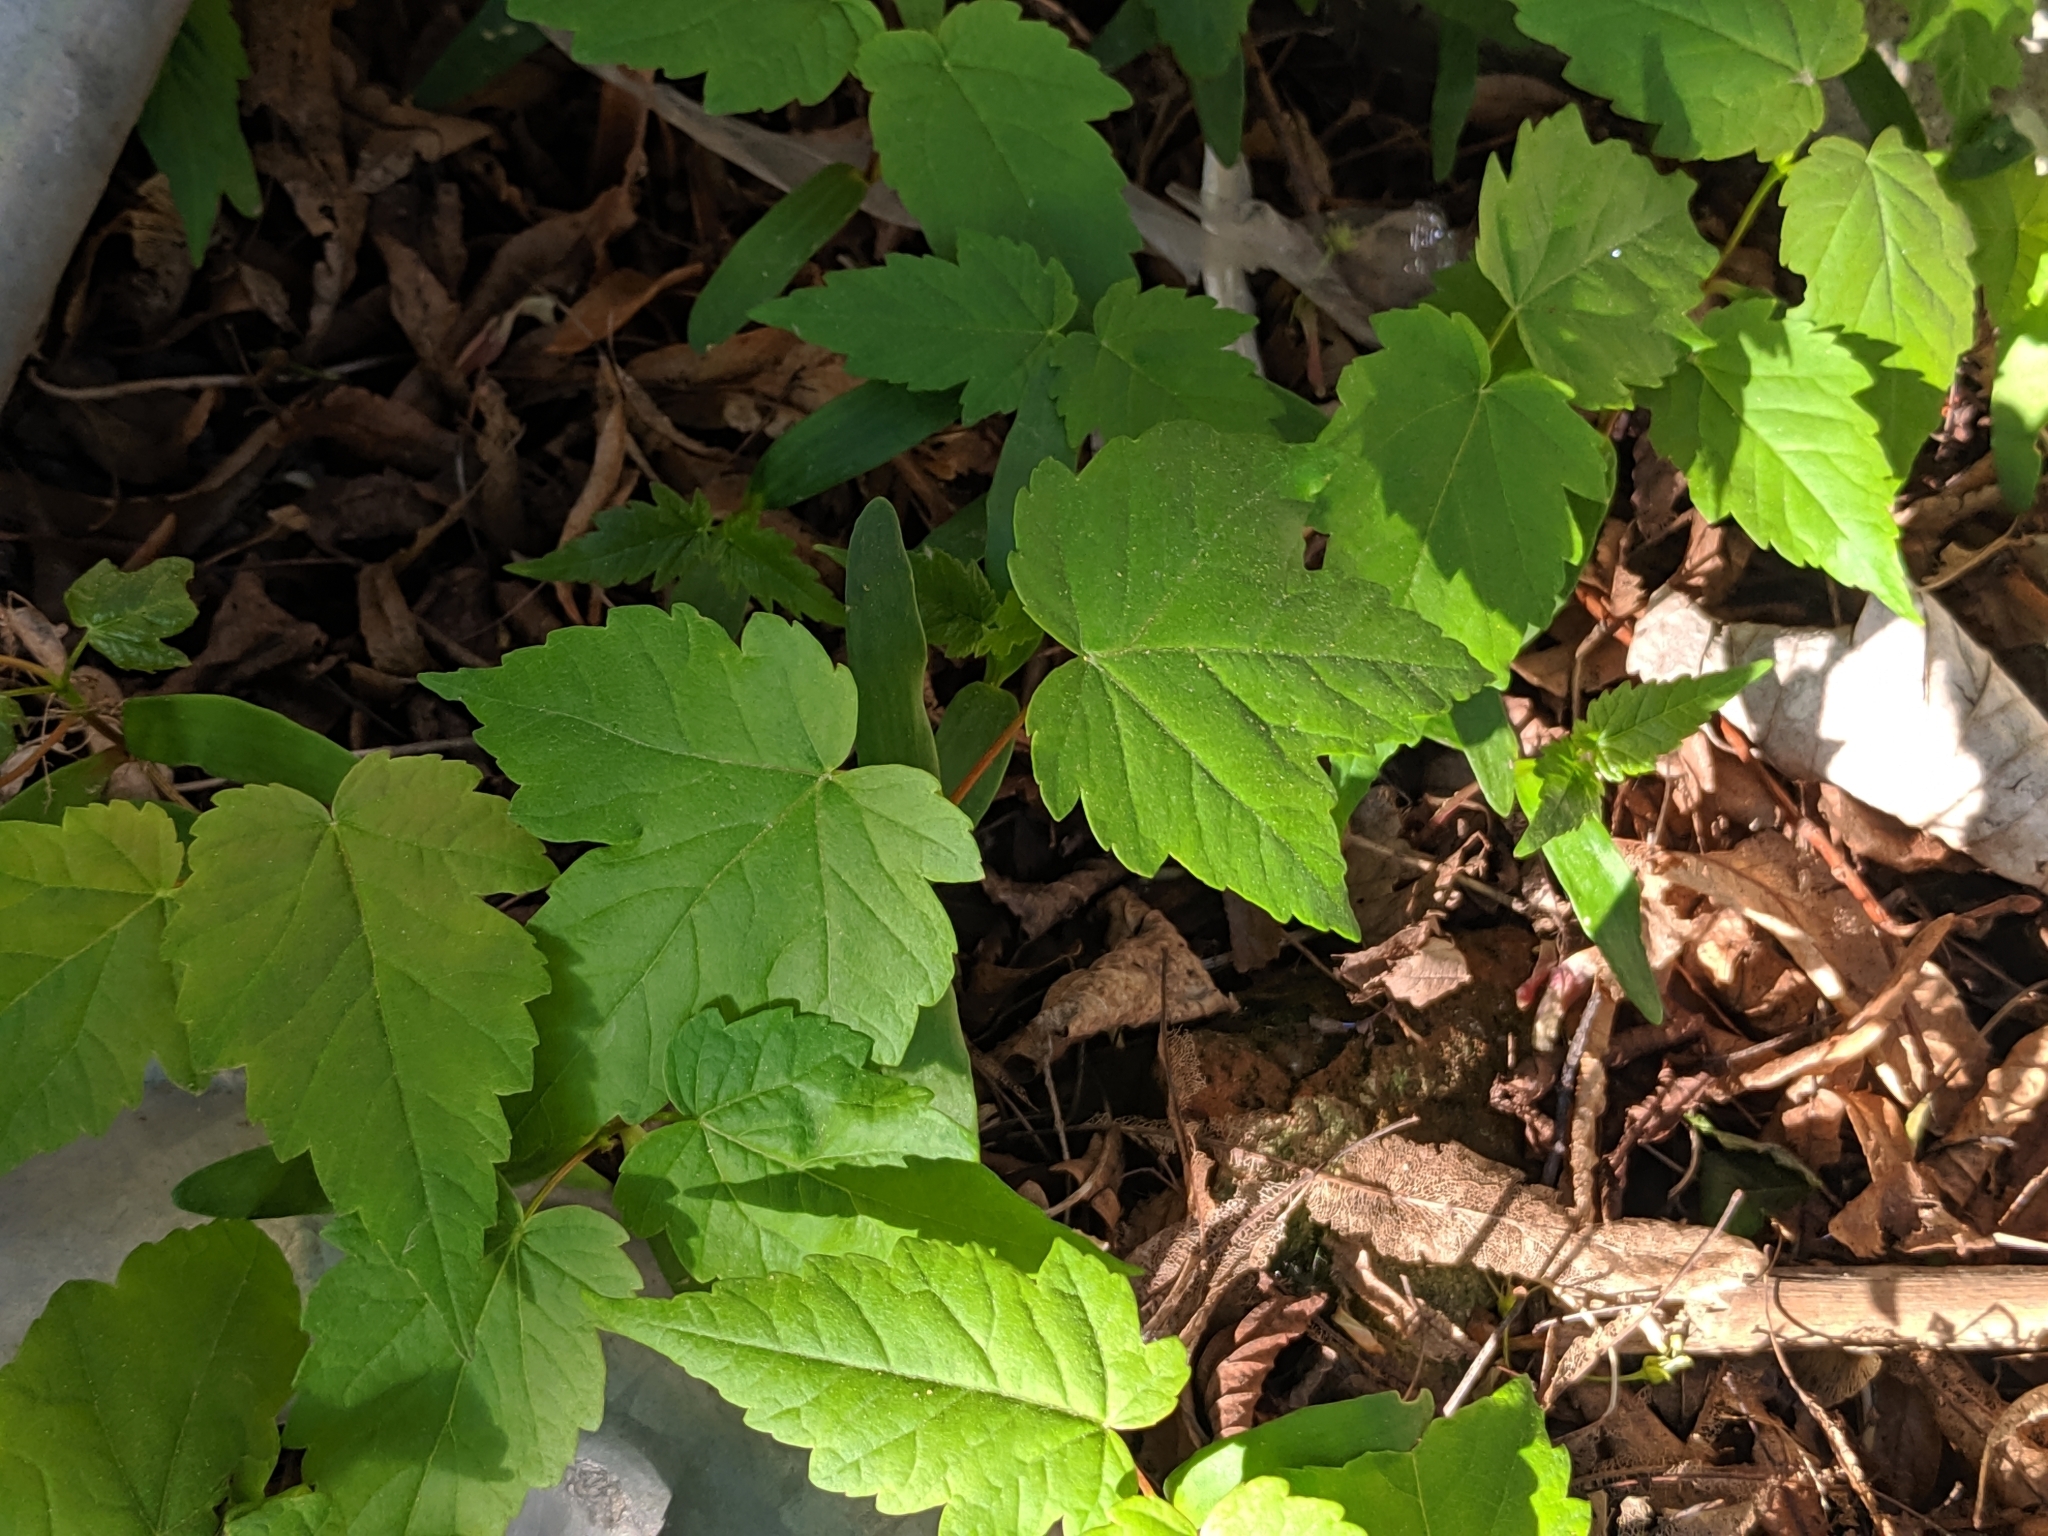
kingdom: Plantae
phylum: Tracheophyta
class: Magnoliopsida
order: Sapindales
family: Sapindaceae
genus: Acer
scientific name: Acer pseudoplatanus
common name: Sycamore
